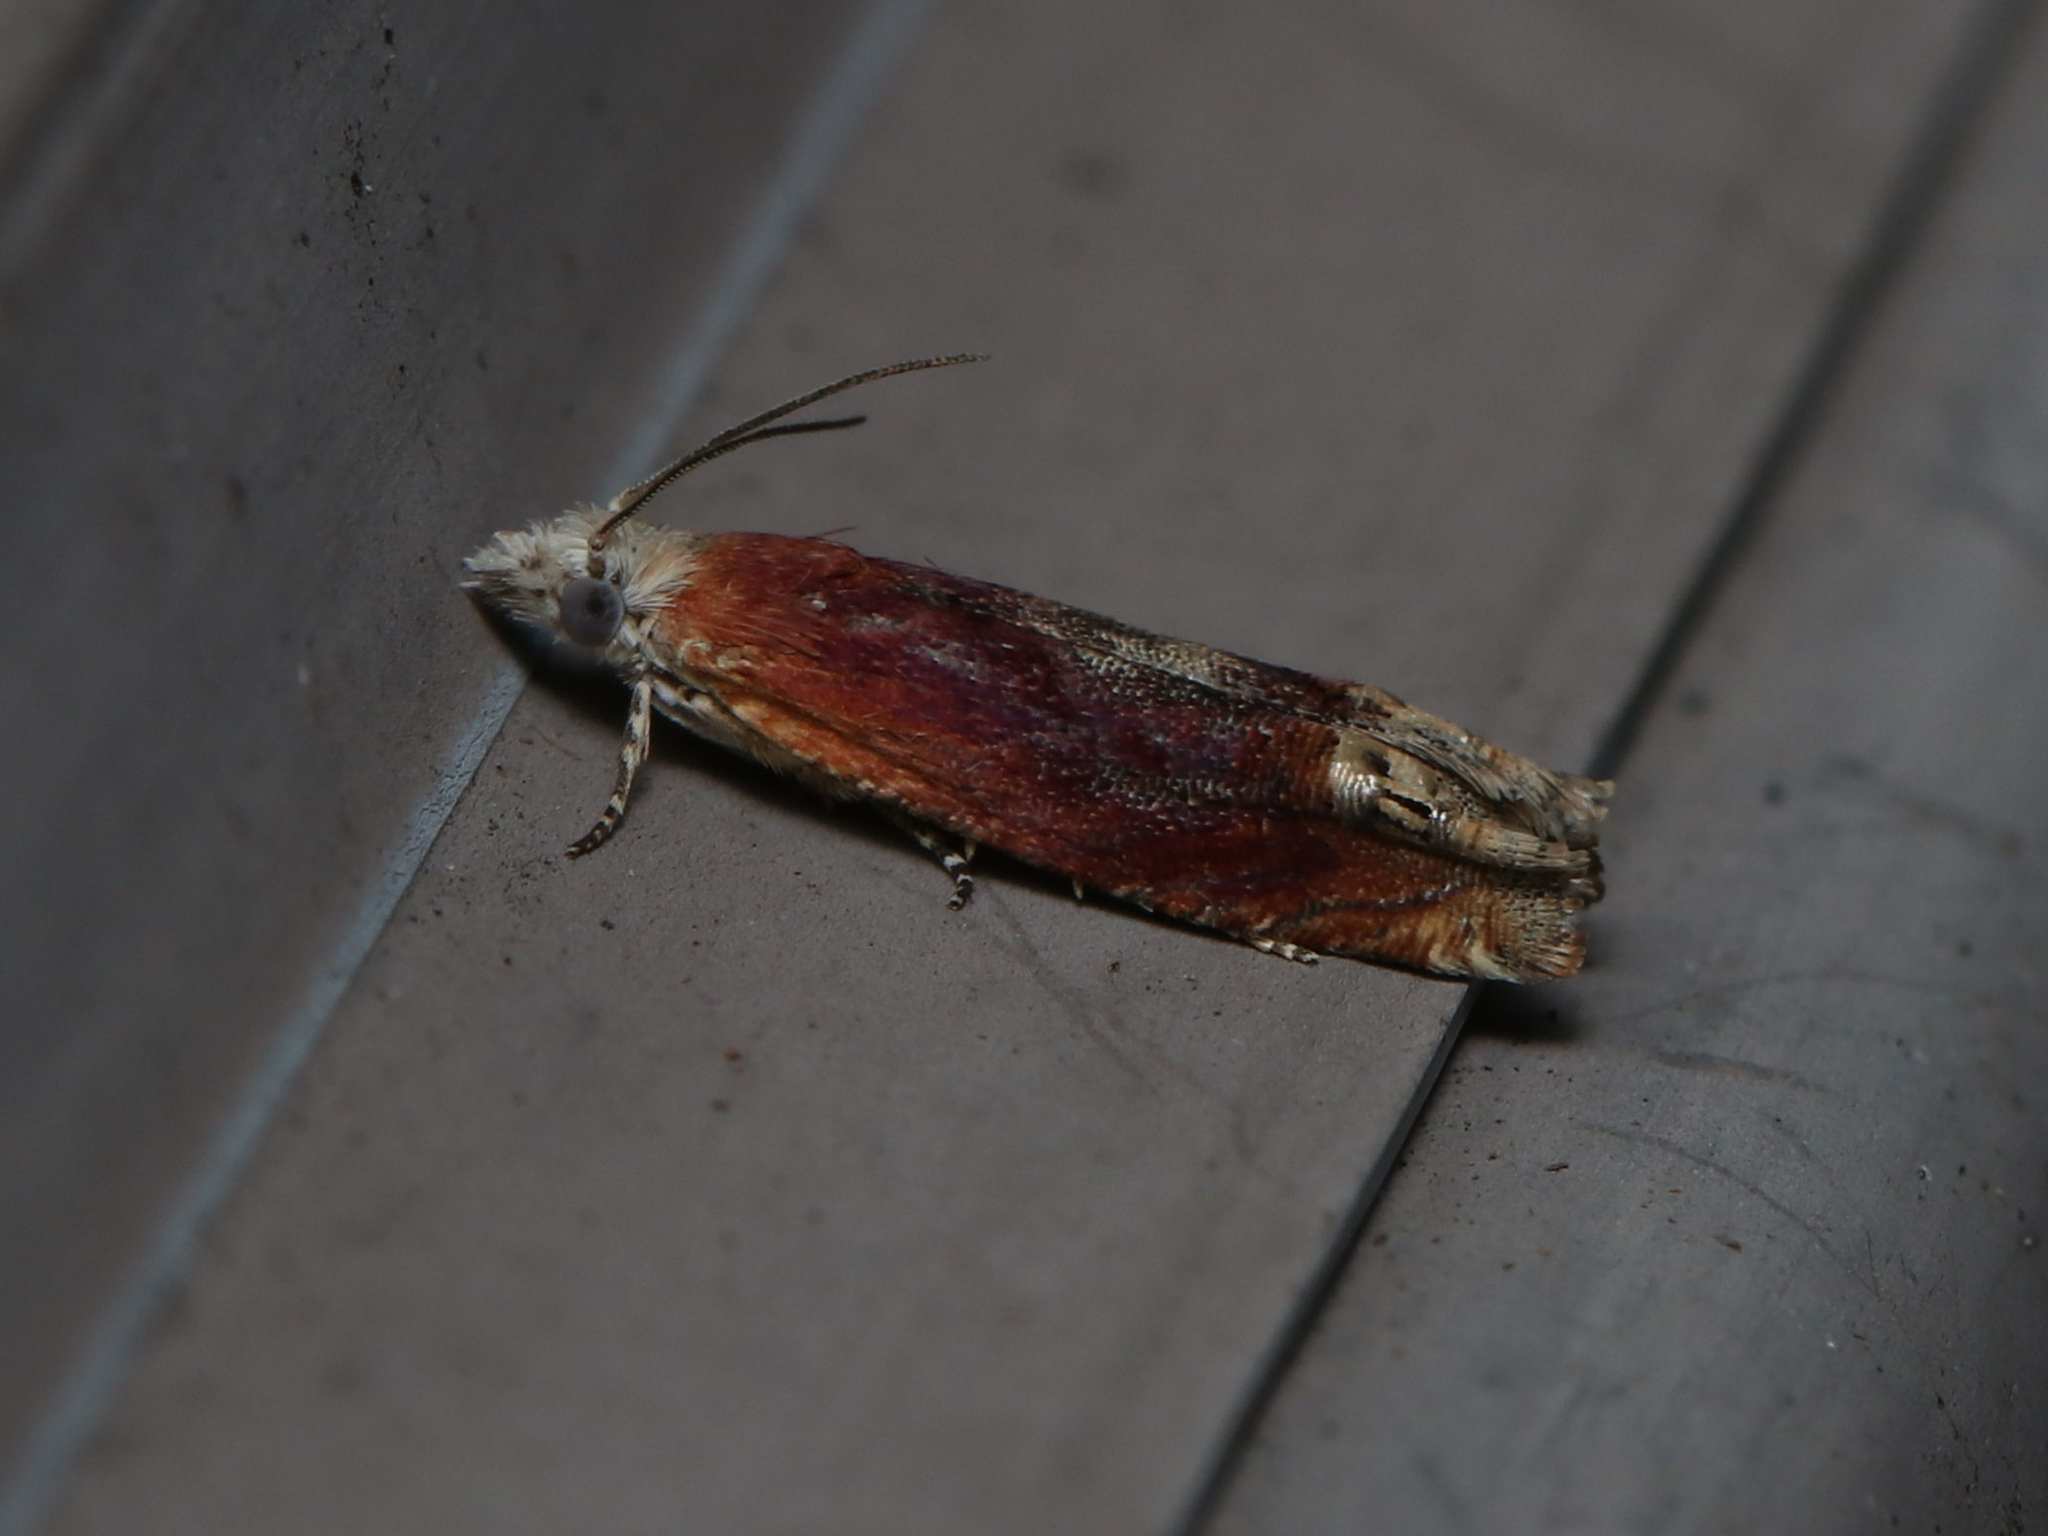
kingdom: Animalia
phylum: Arthropoda
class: Insecta
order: Lepidoptera
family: Tortricidae
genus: Eucosma
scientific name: Eucosma raracana
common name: Reddish eucosma moth
